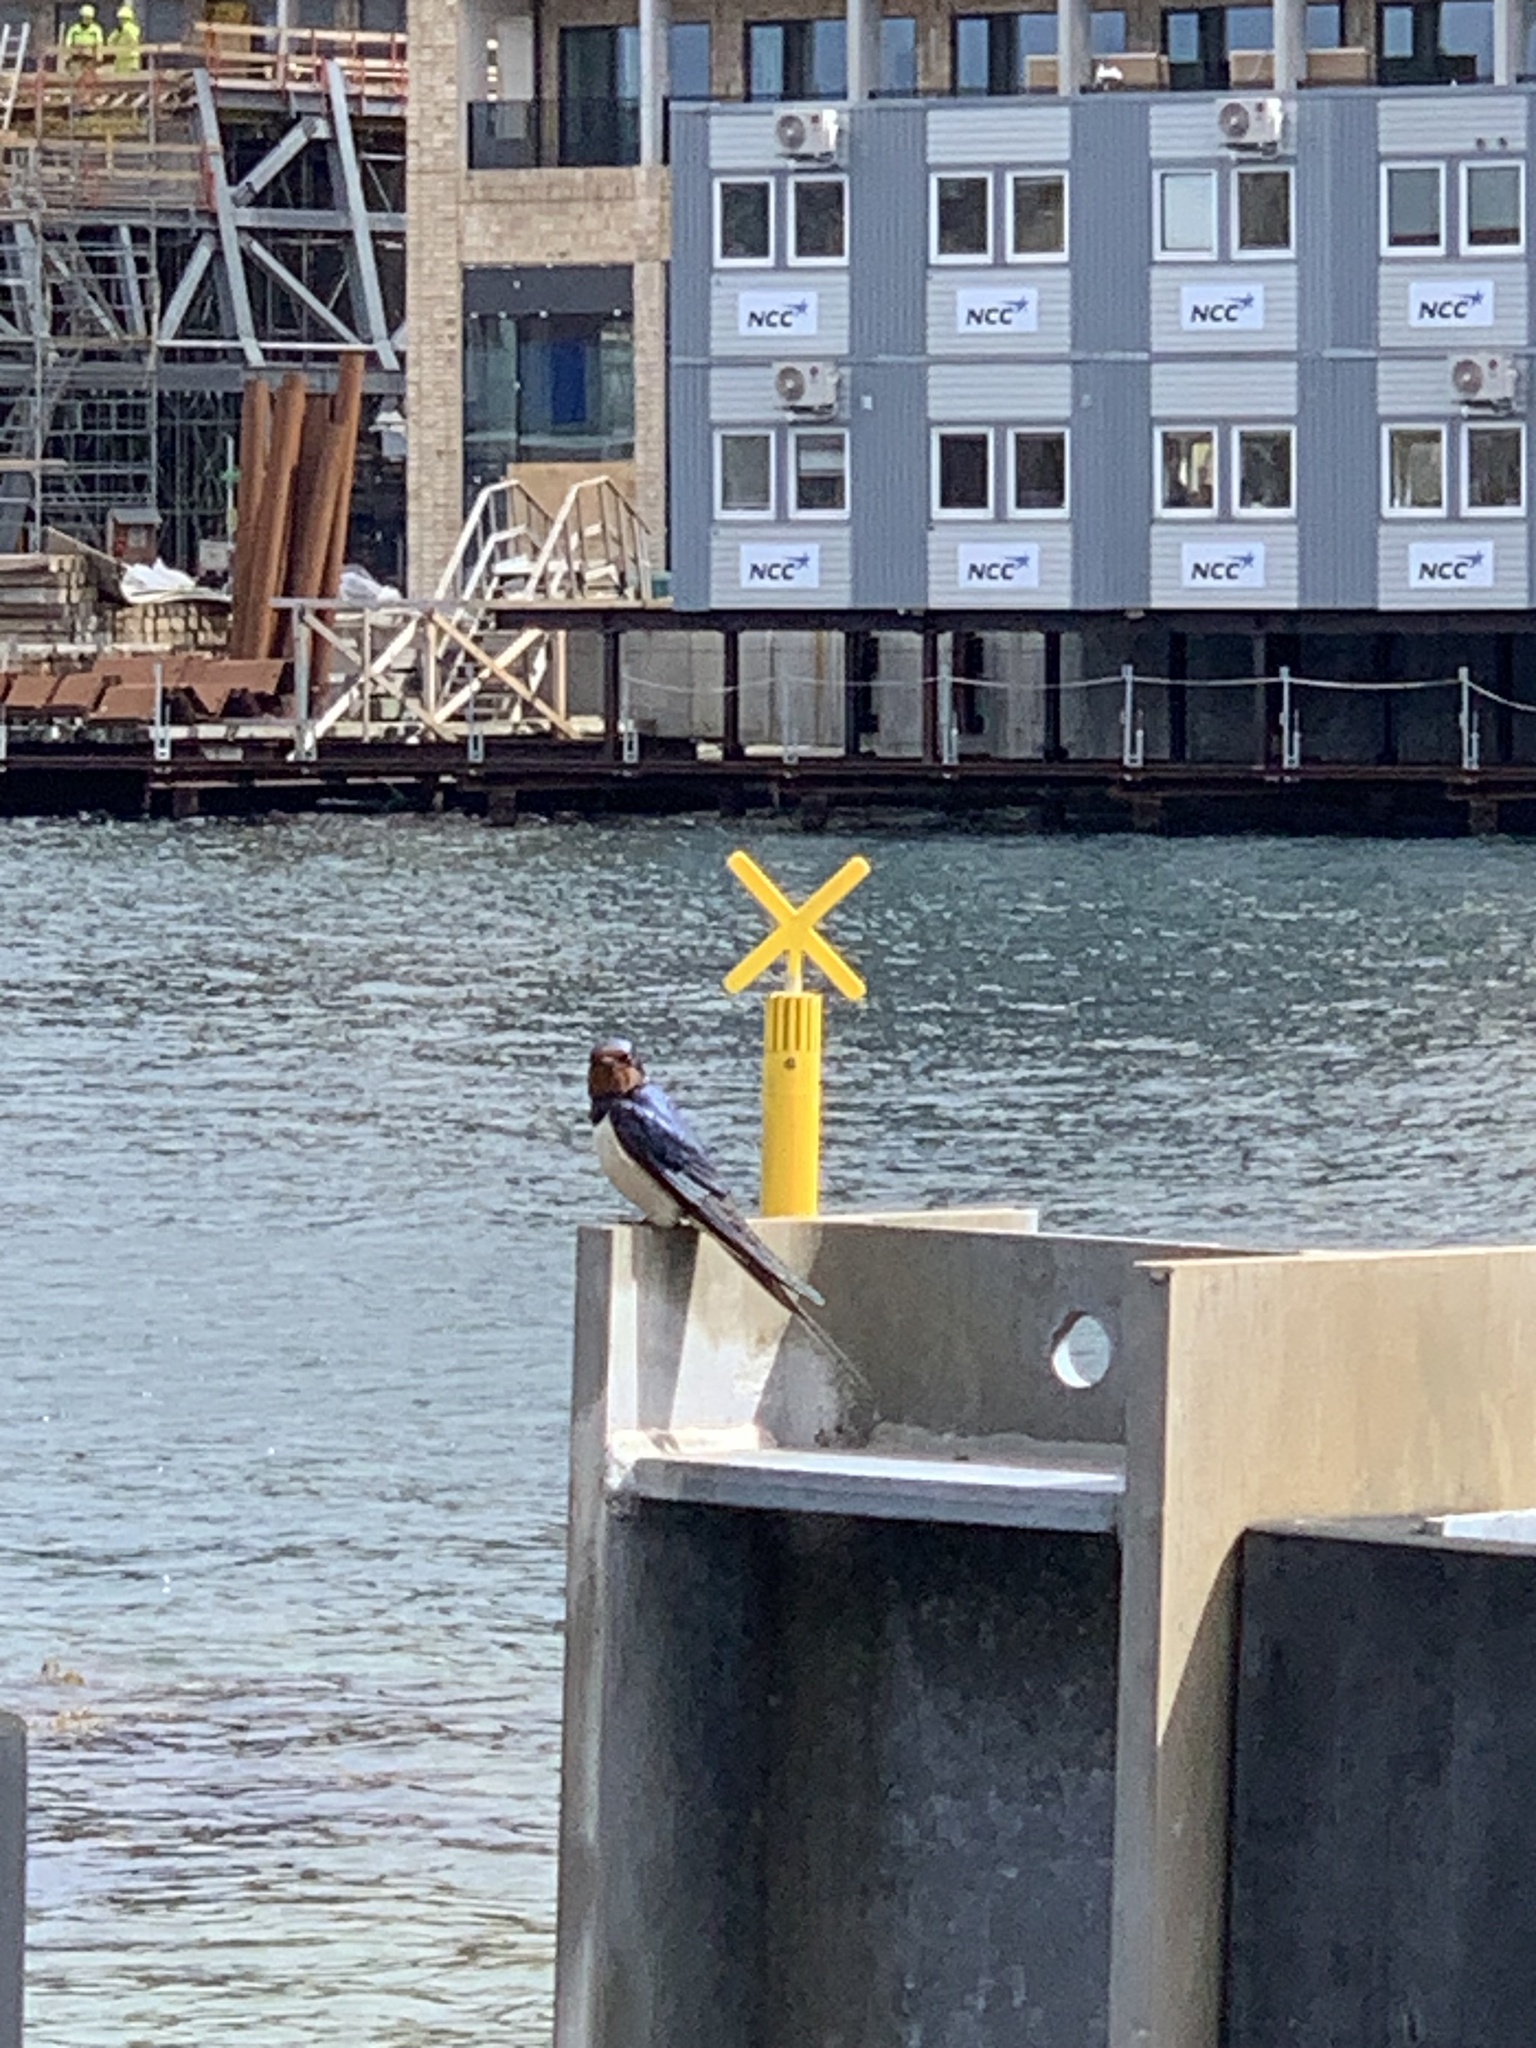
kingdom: Animalia
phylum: Chordata
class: Aves
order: Passeriformes
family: Hirundinidae
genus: Hirundo
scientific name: Hirundo rustica
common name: Barn swallow
